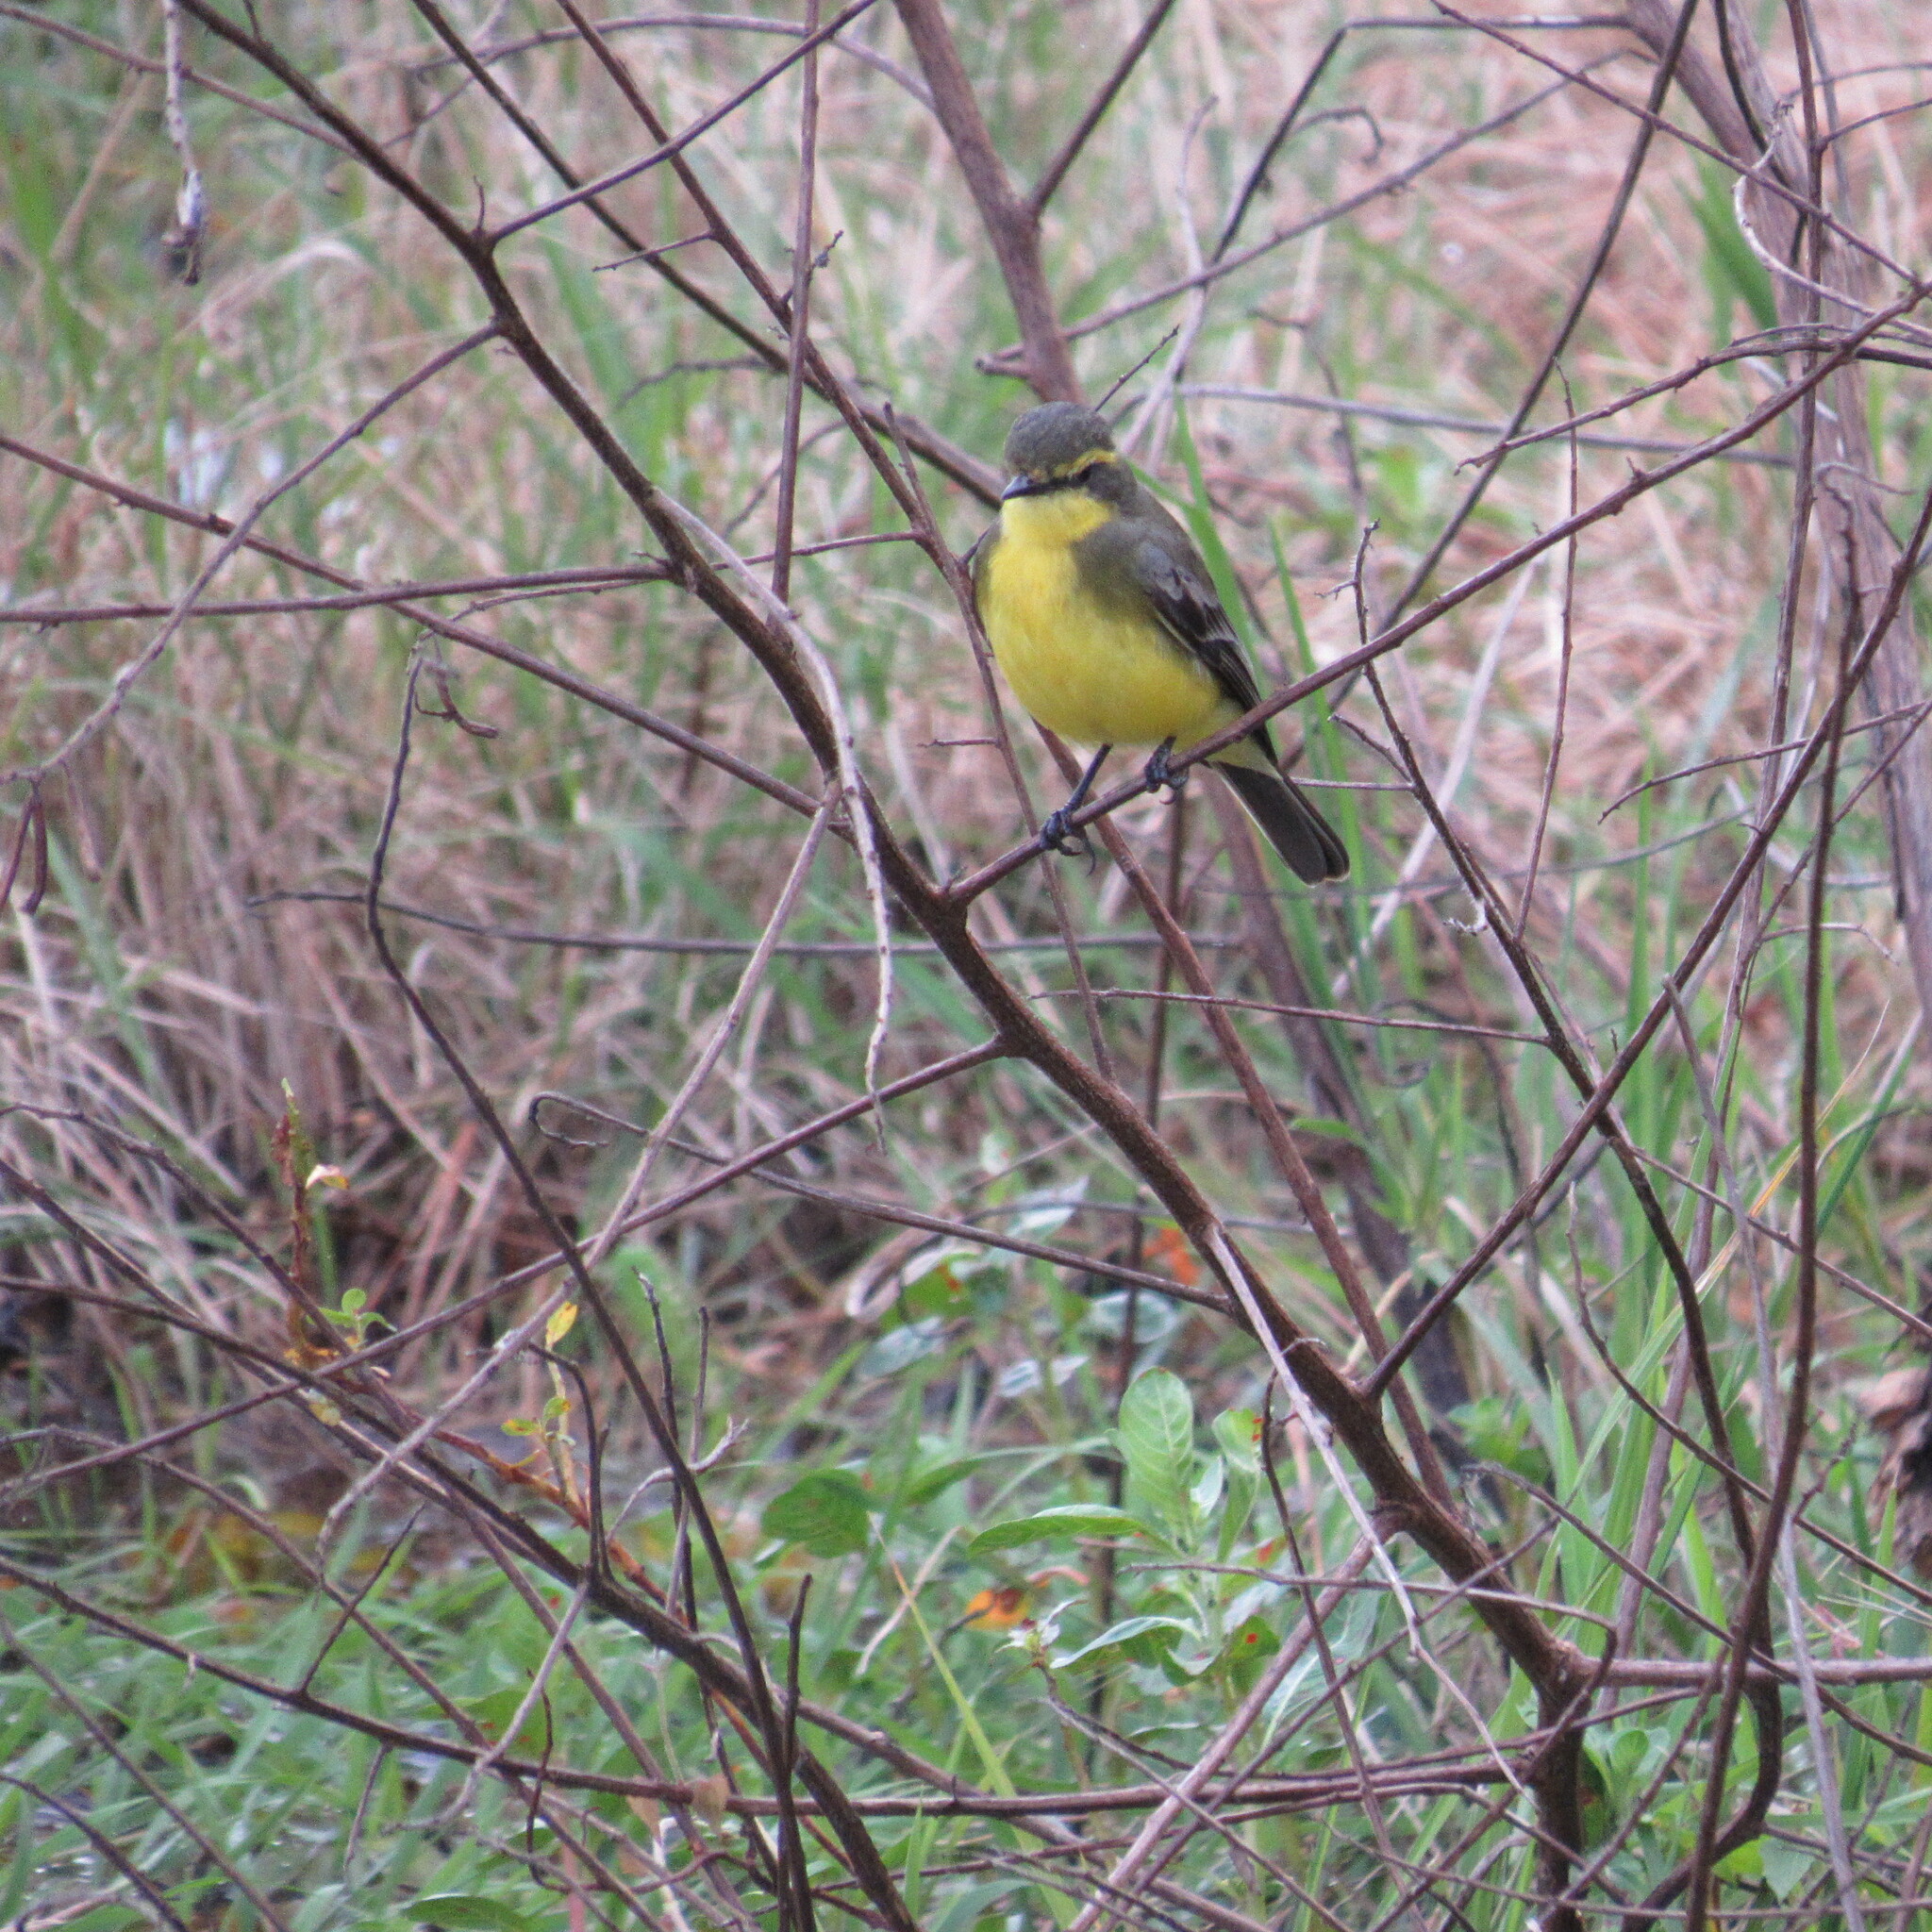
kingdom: Animalia
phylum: Chordata
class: Aves
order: Passeriformes
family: Tyrannidae
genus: Satrapa
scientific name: Satrapa icterophrys
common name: Yellow-browed tyrant
